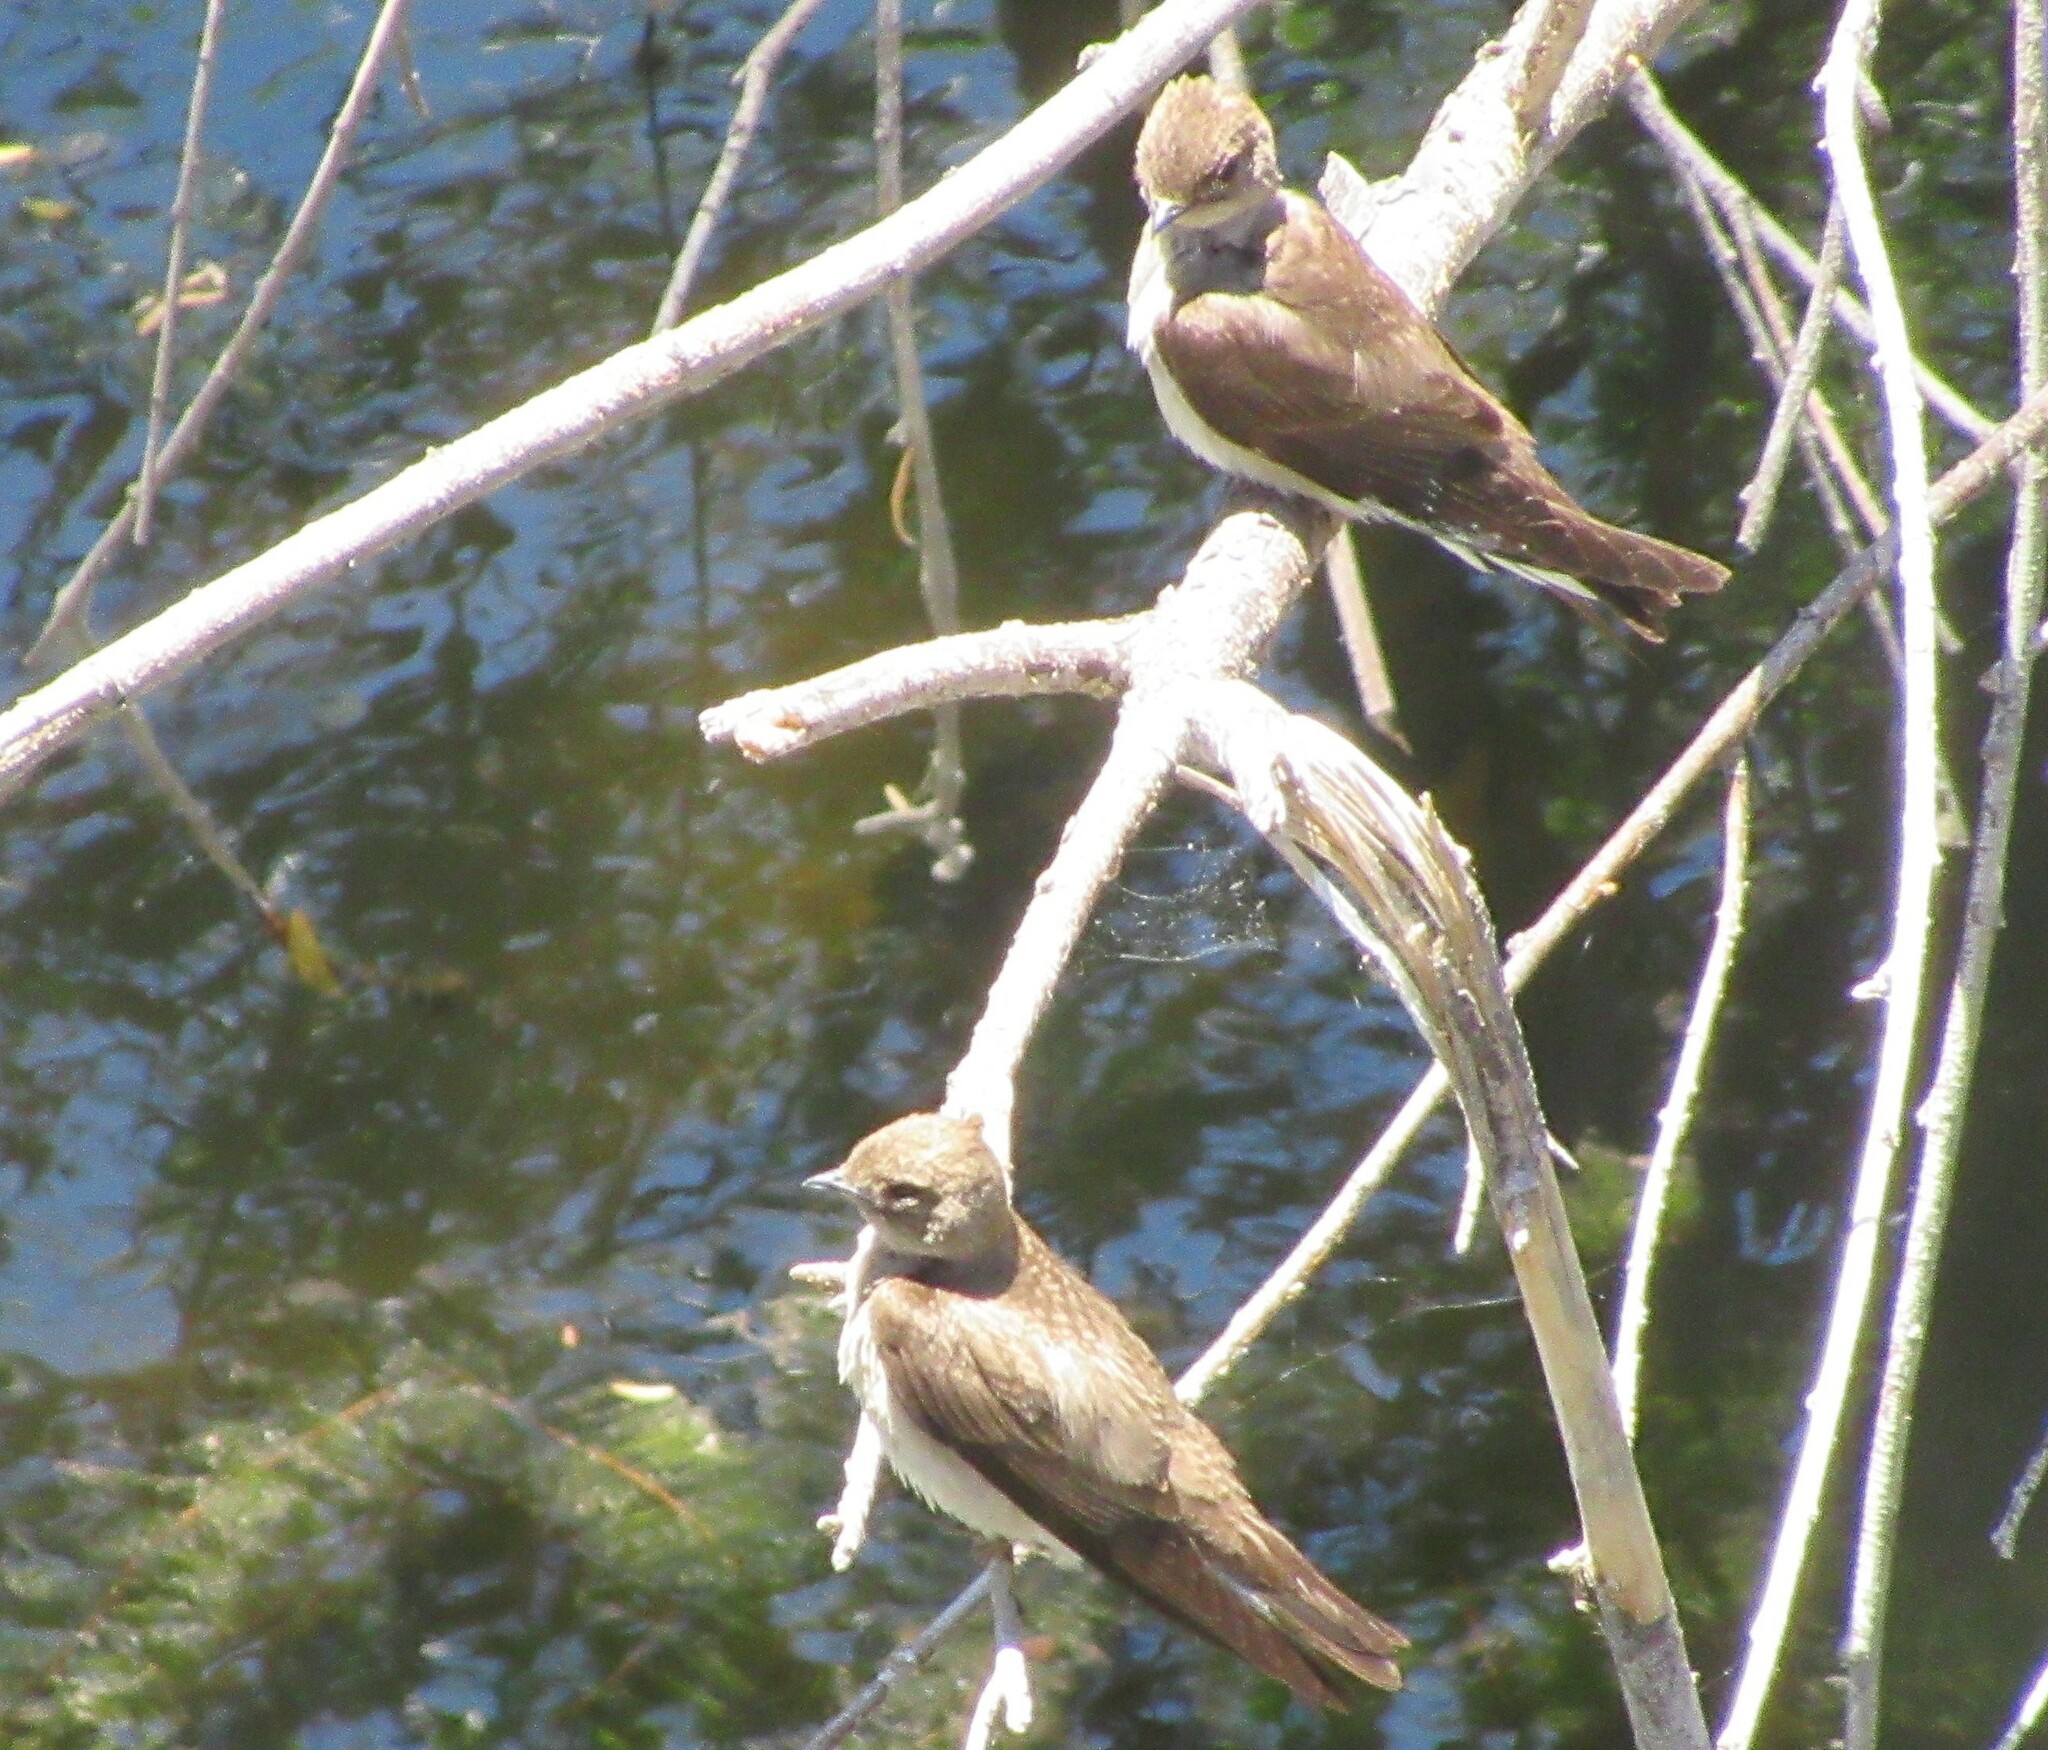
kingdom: Animalia
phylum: Chordata
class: Aves
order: Passeriformes
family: Hirundinidae
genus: Stelgidopteryx
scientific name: Stelgidopteryx serripennis
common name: Northern rough-winged swallow
